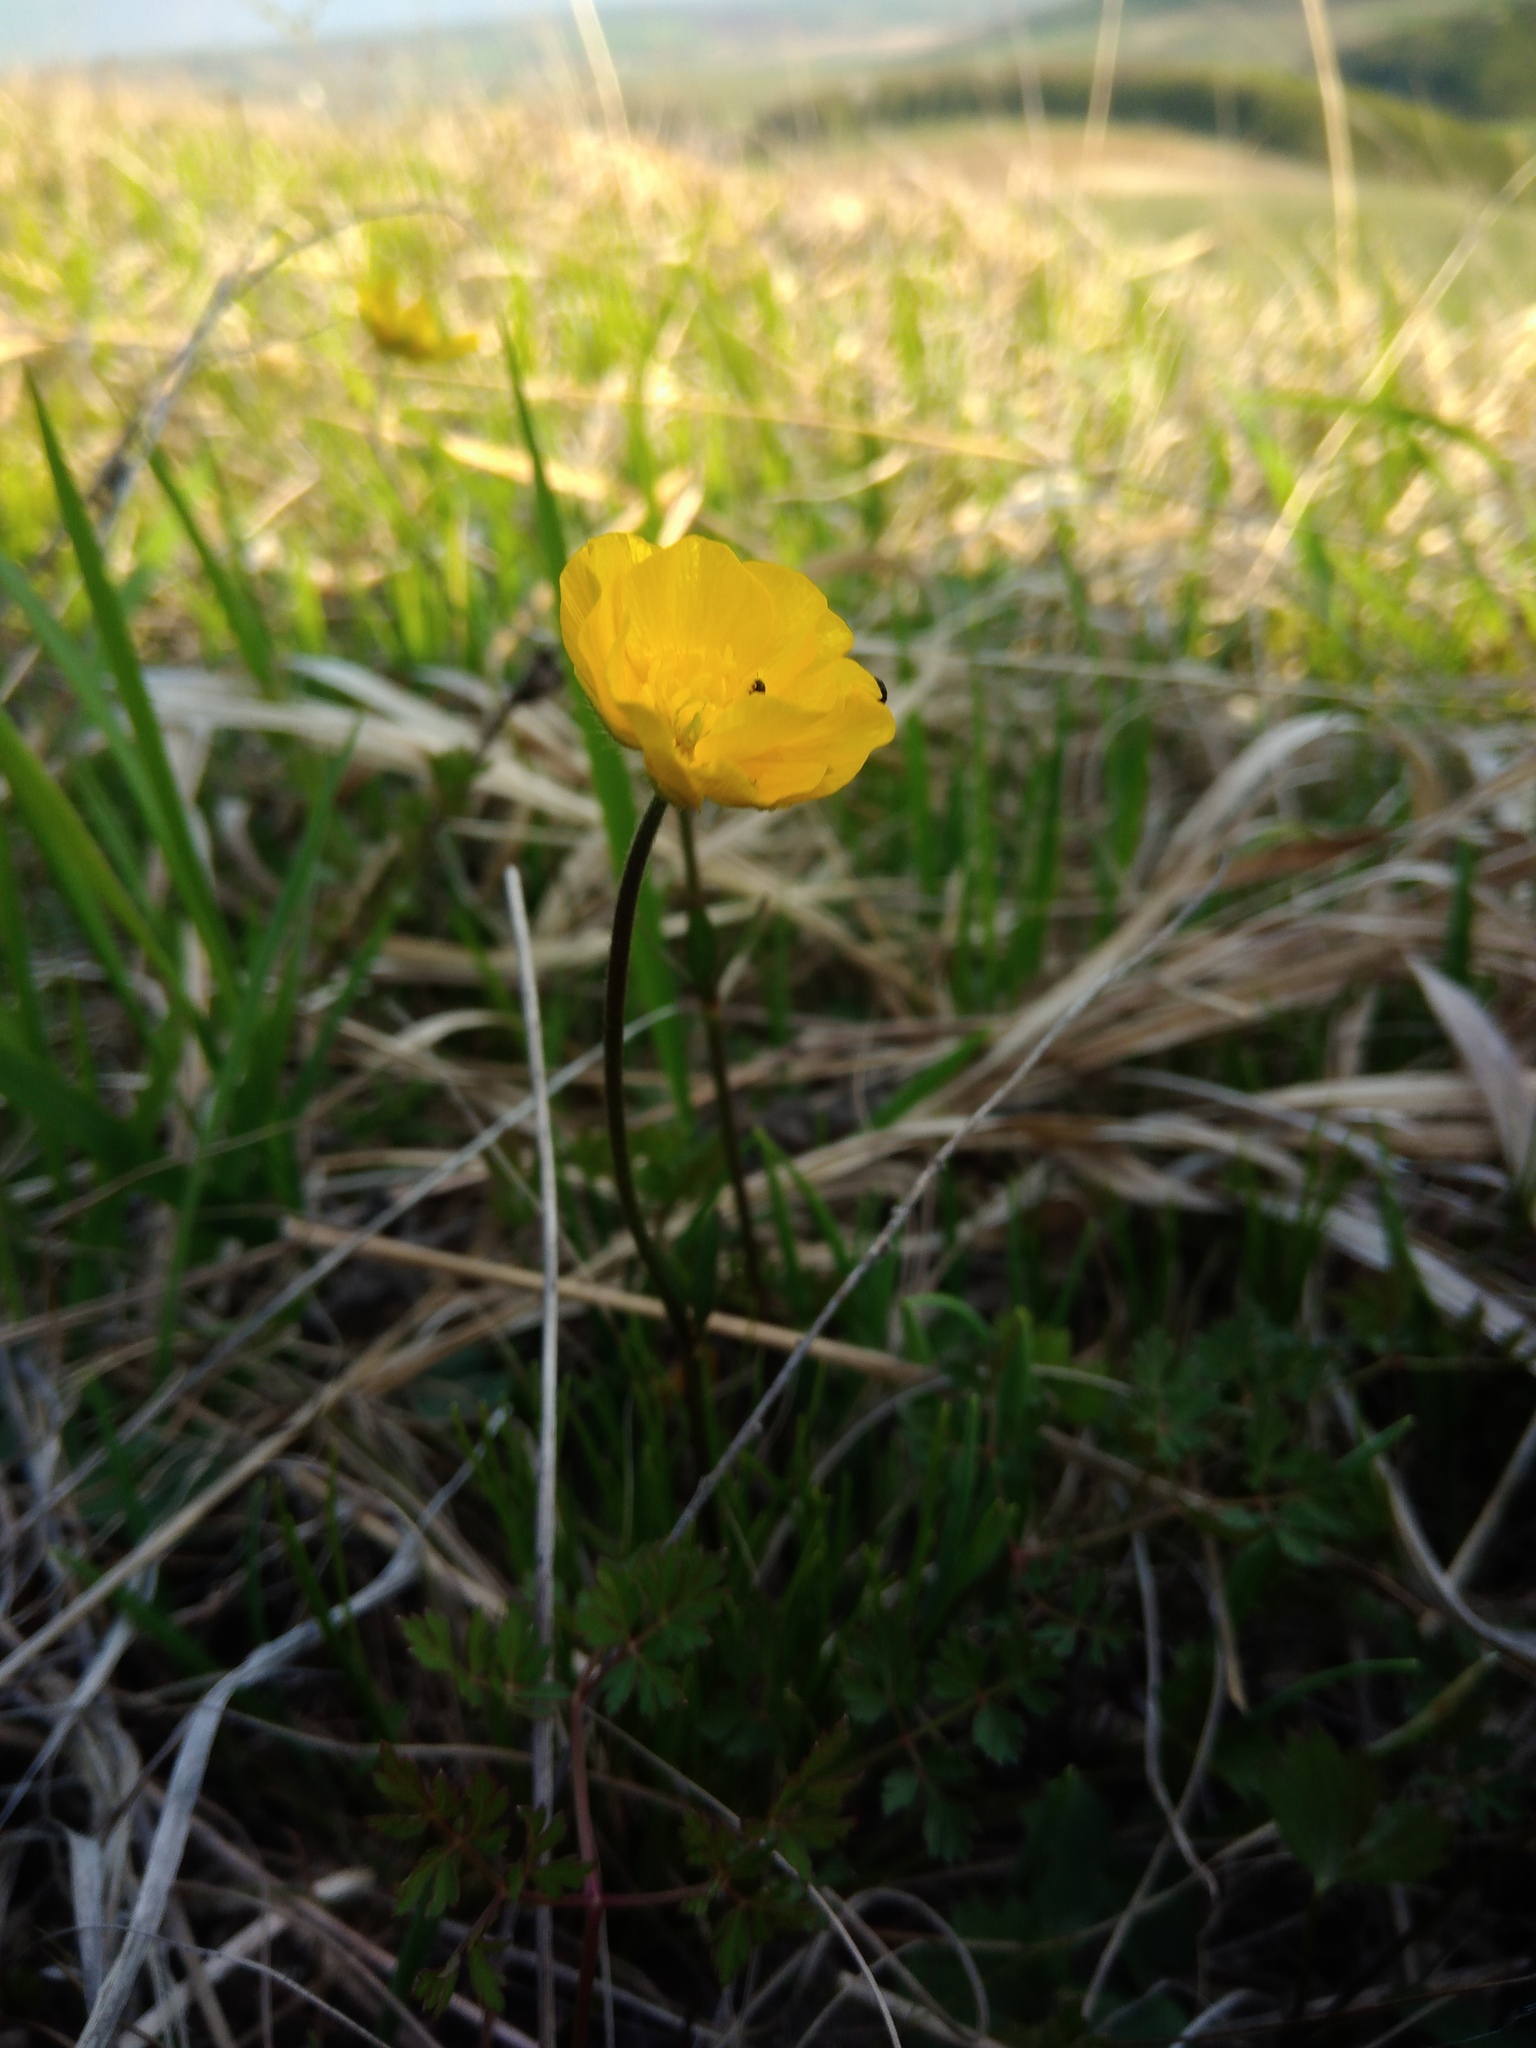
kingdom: Plantae
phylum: Tracheophyta
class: Magnoliopsida
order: Ranunculales
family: Ranunculaceae
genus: Ranunculus
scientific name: Ranunculus auricomus
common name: Goldilocks buttercup
